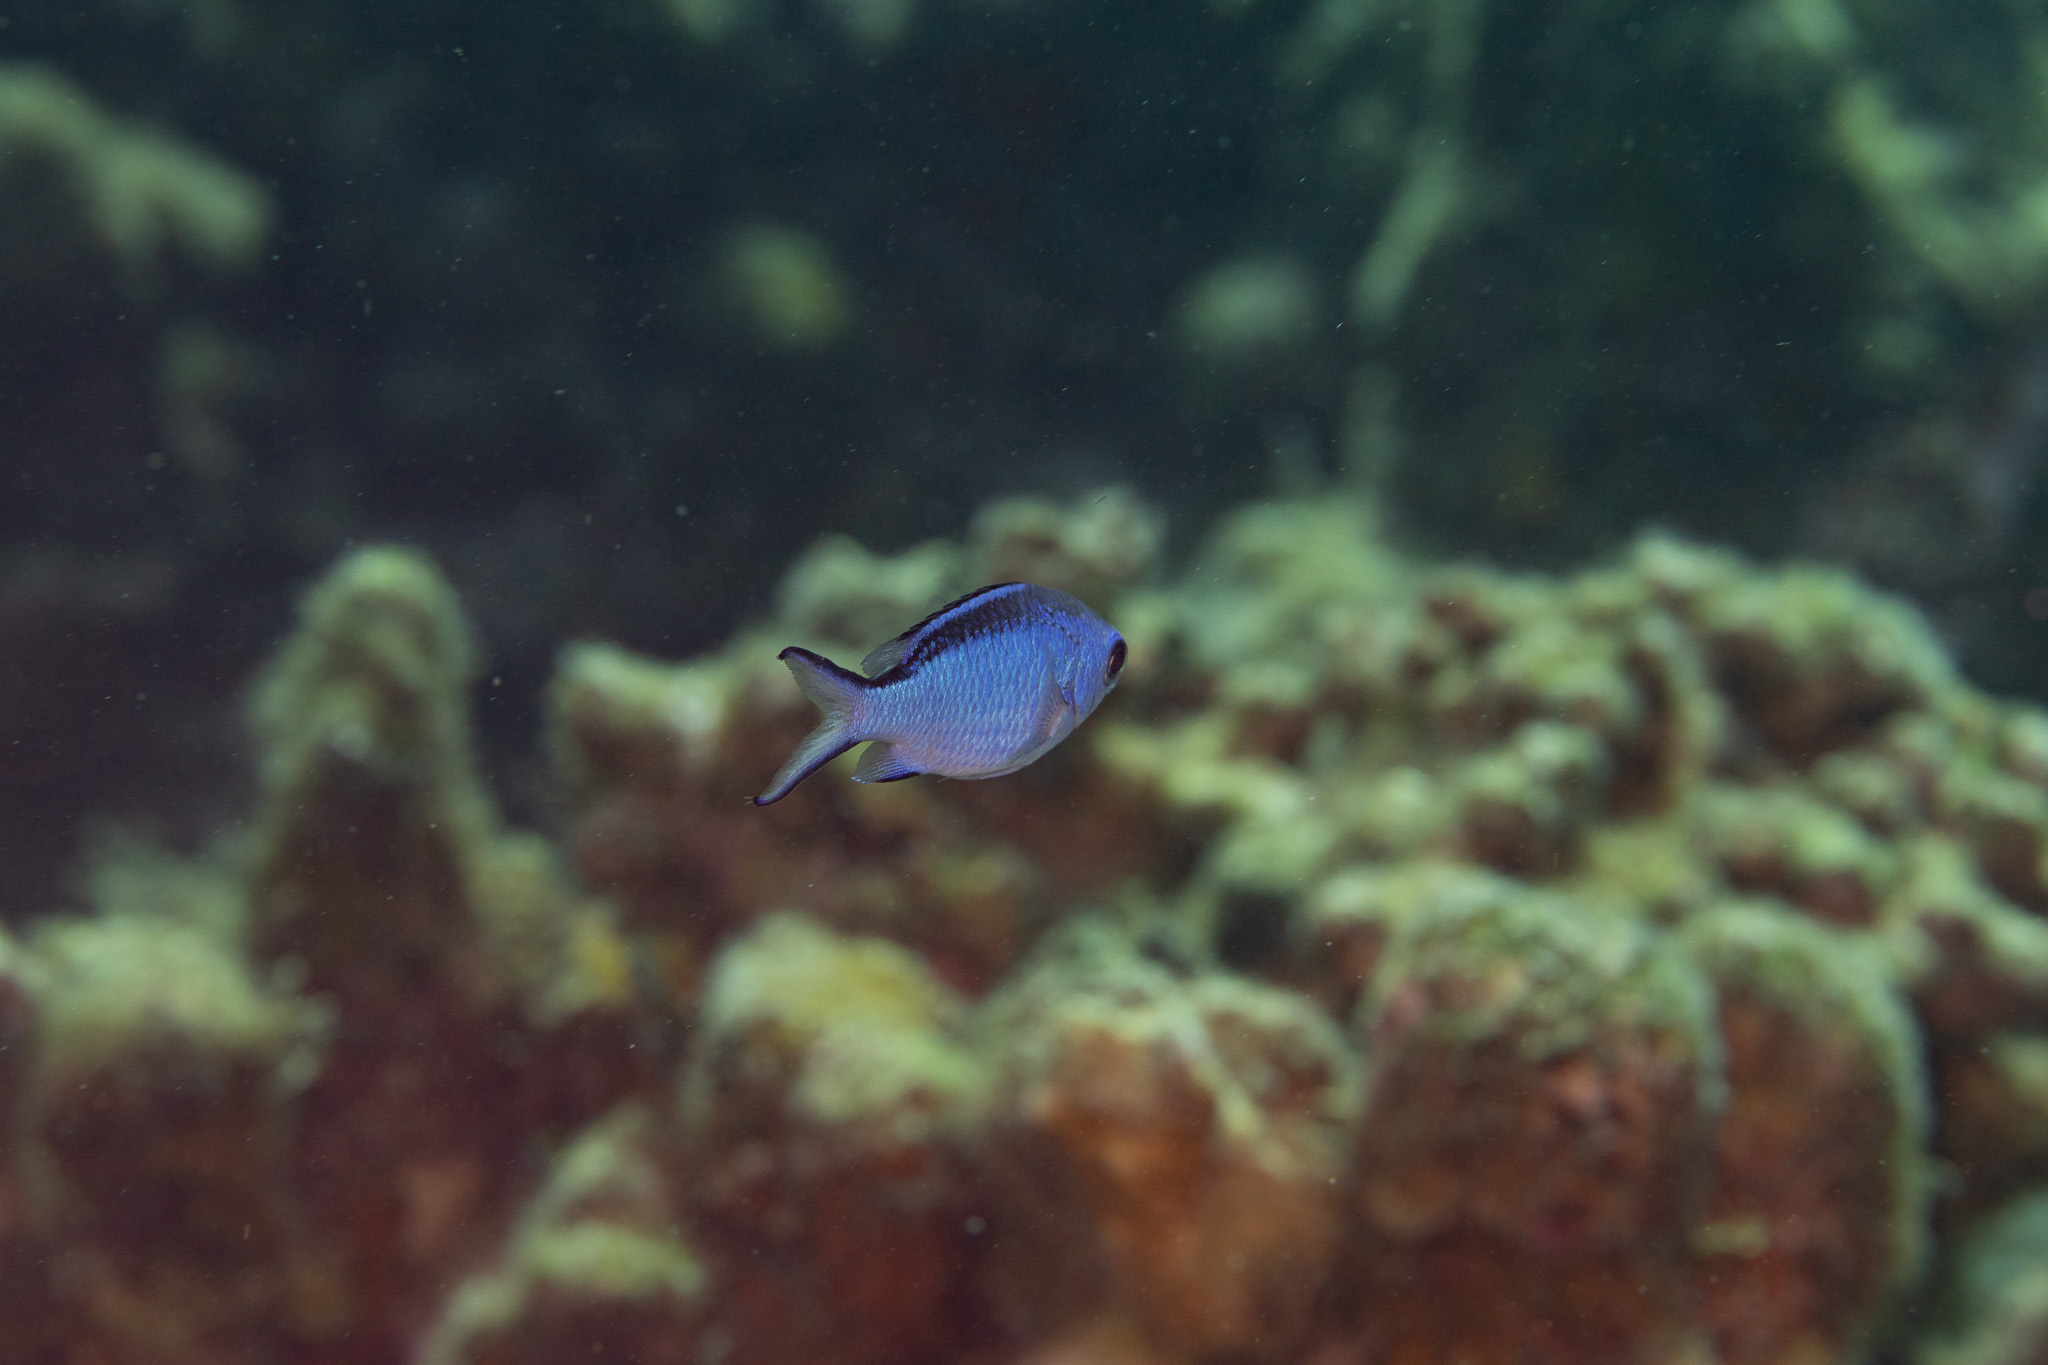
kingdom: Animalia
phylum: Chordata
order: Perciformes
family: Pomacentridae
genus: Chromis
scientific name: Chromis cyanea
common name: Blue chromis
